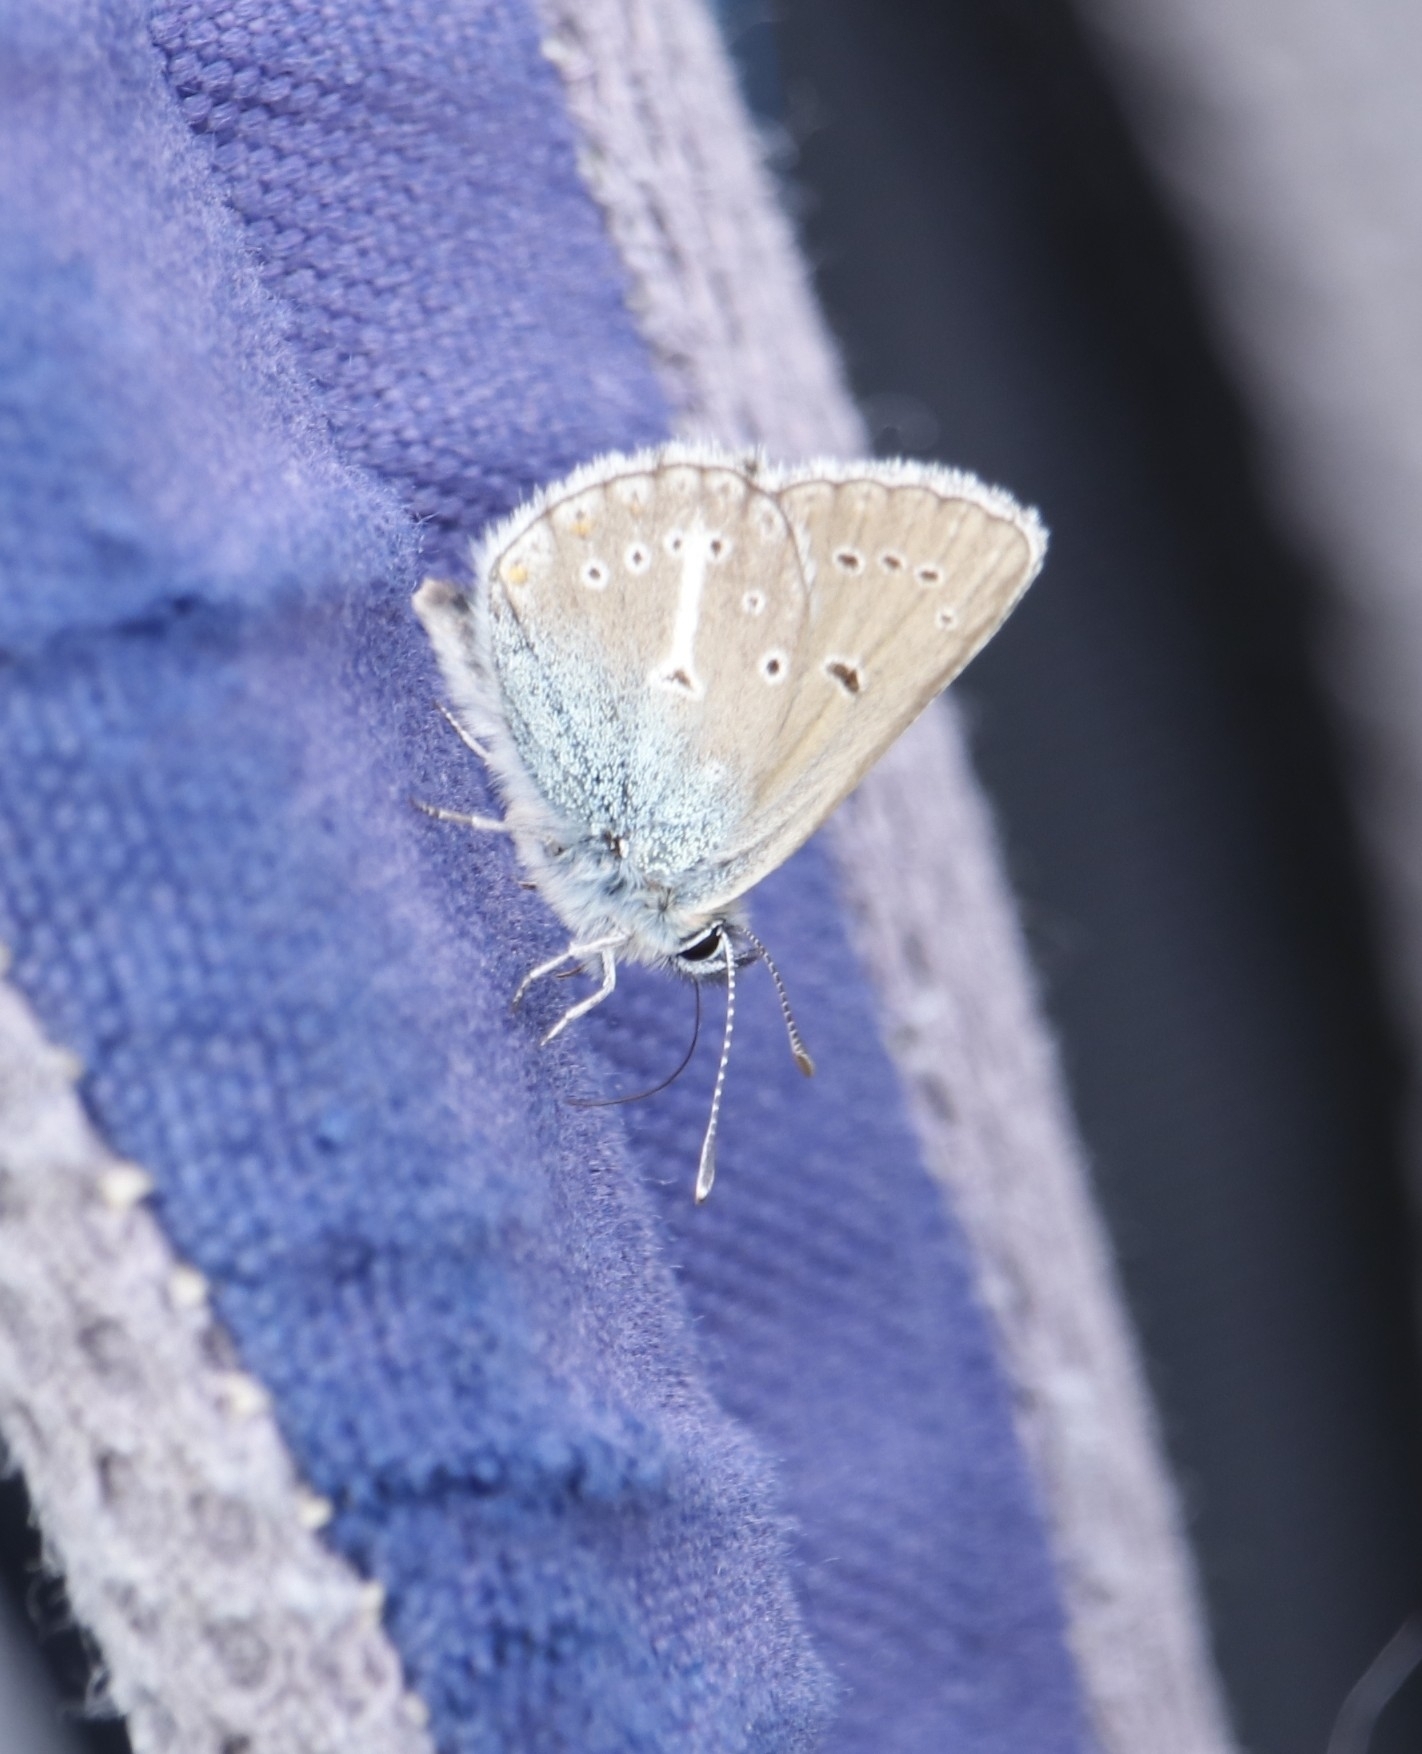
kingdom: Animalia
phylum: Arthropoda
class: Insecta
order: Lepidoptera
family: Lycaenidae
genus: Eumedonia
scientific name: Eumedonia eumedon
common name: Geranium argus
